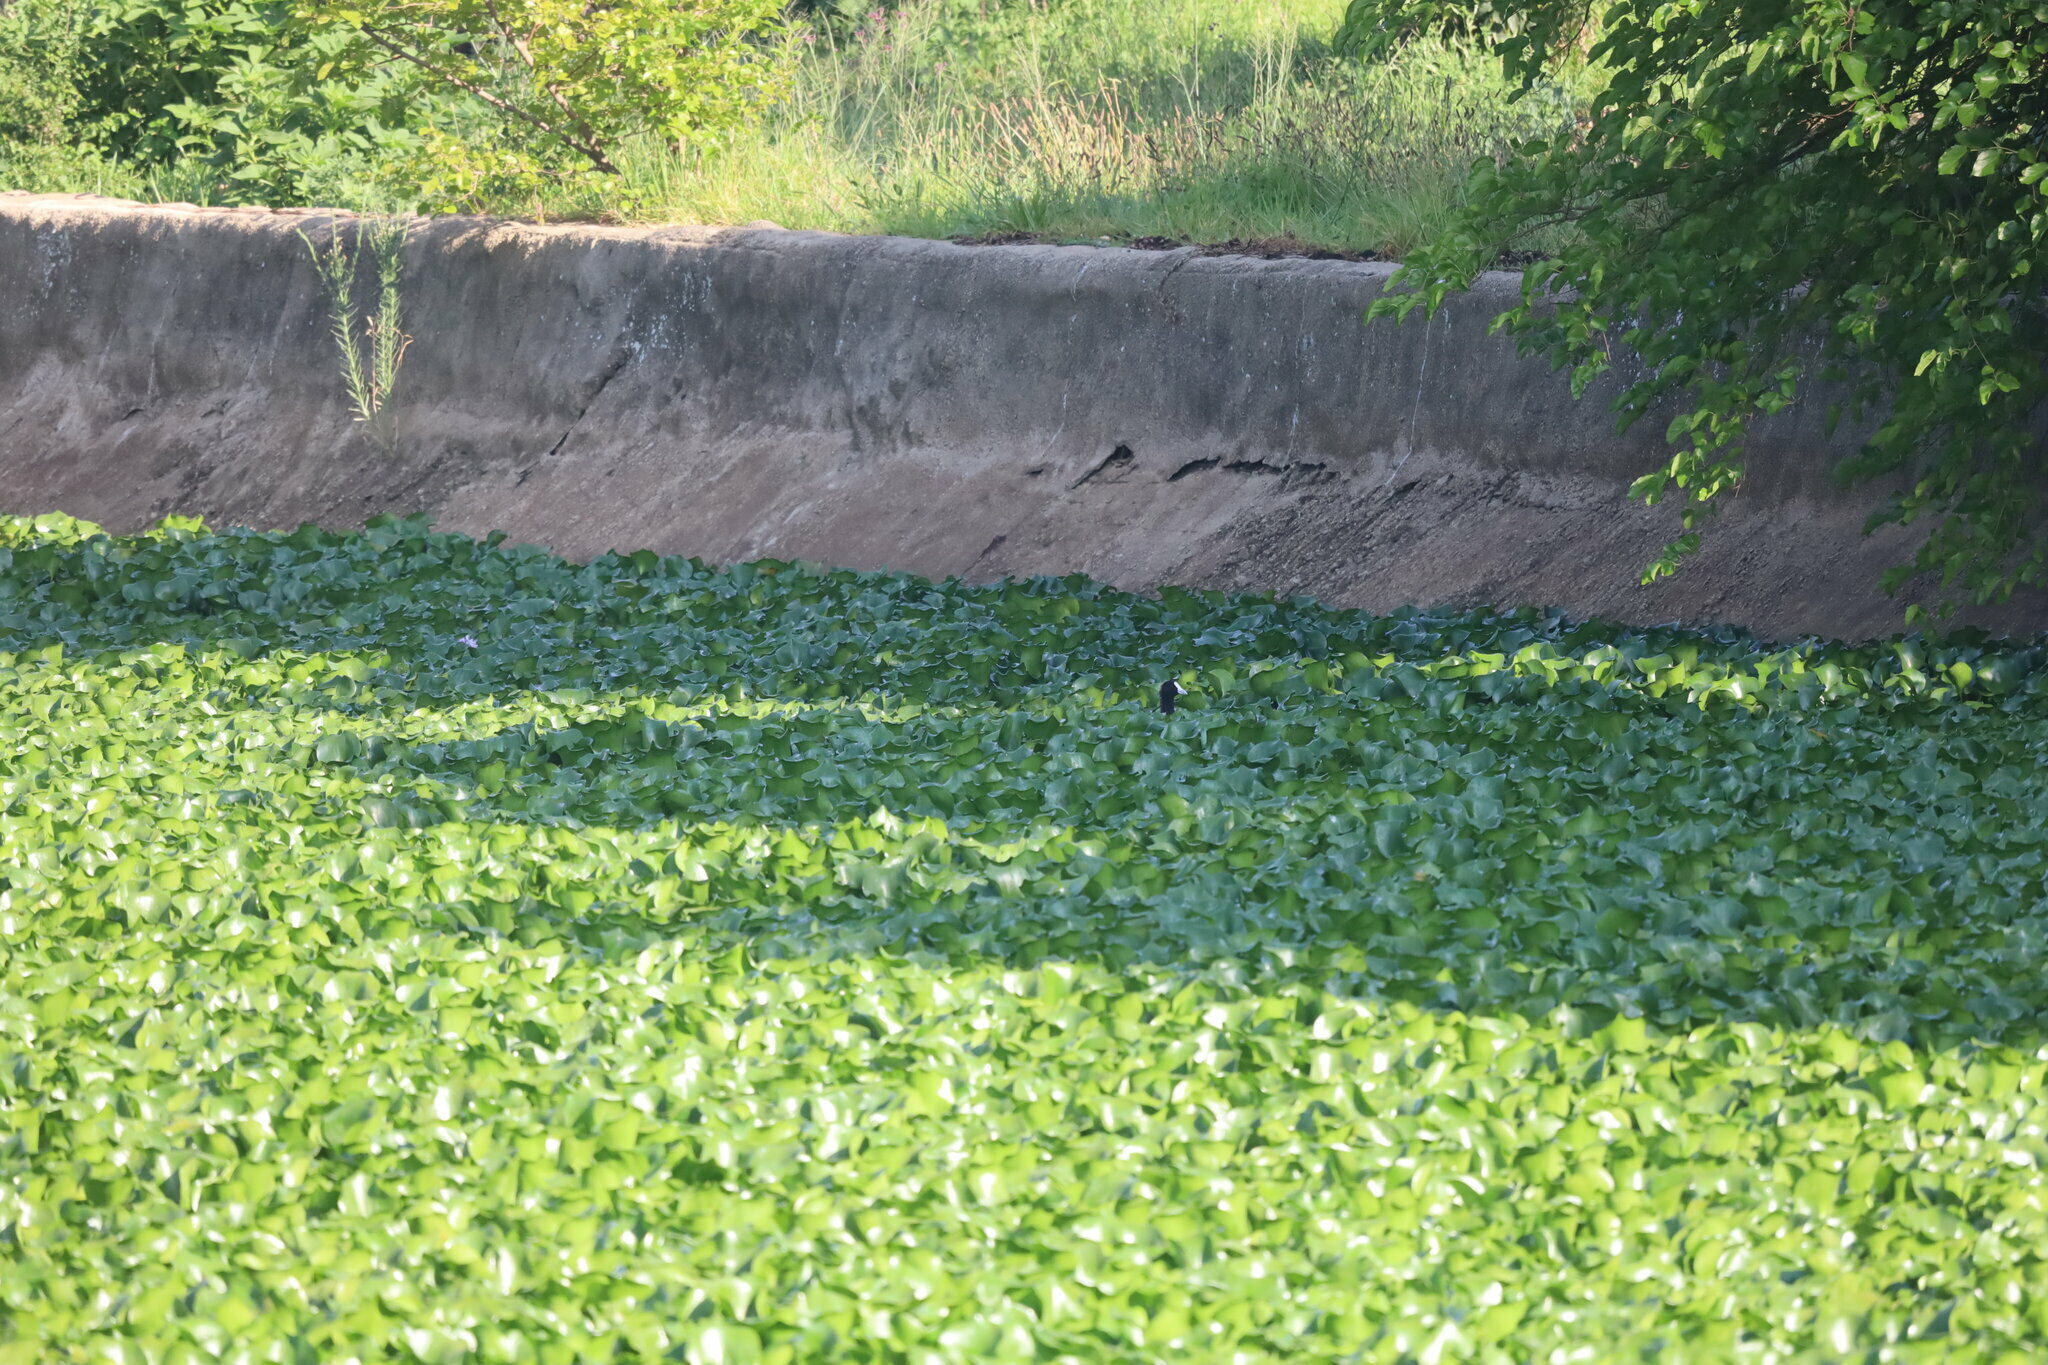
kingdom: Animalia
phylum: Chordata
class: Aves
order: Gruiformes
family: Rallidae
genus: Fulica
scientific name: Fulica cristata
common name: Red-knobbed coot
